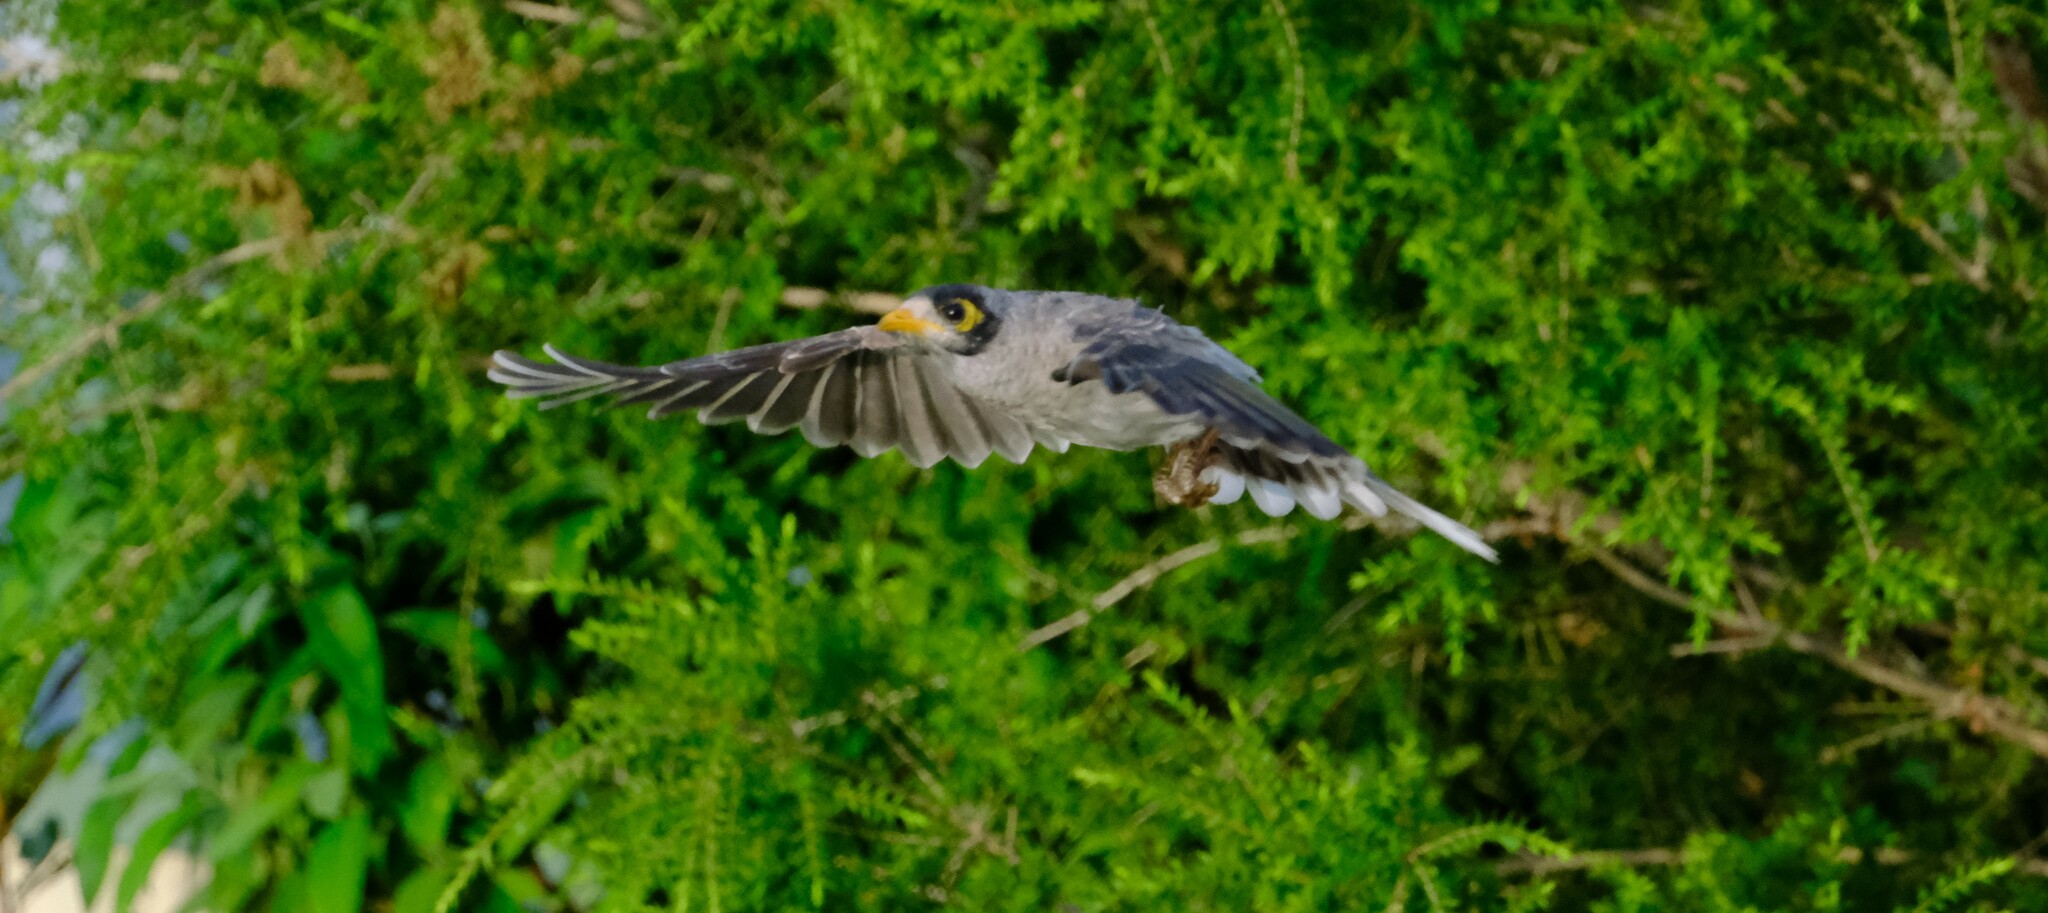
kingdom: Animalia
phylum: Chordata
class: Aves
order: Passeriformes
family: Meliphagidae
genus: Manorina
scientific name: Manorina melanocephala
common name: Noisy miner
